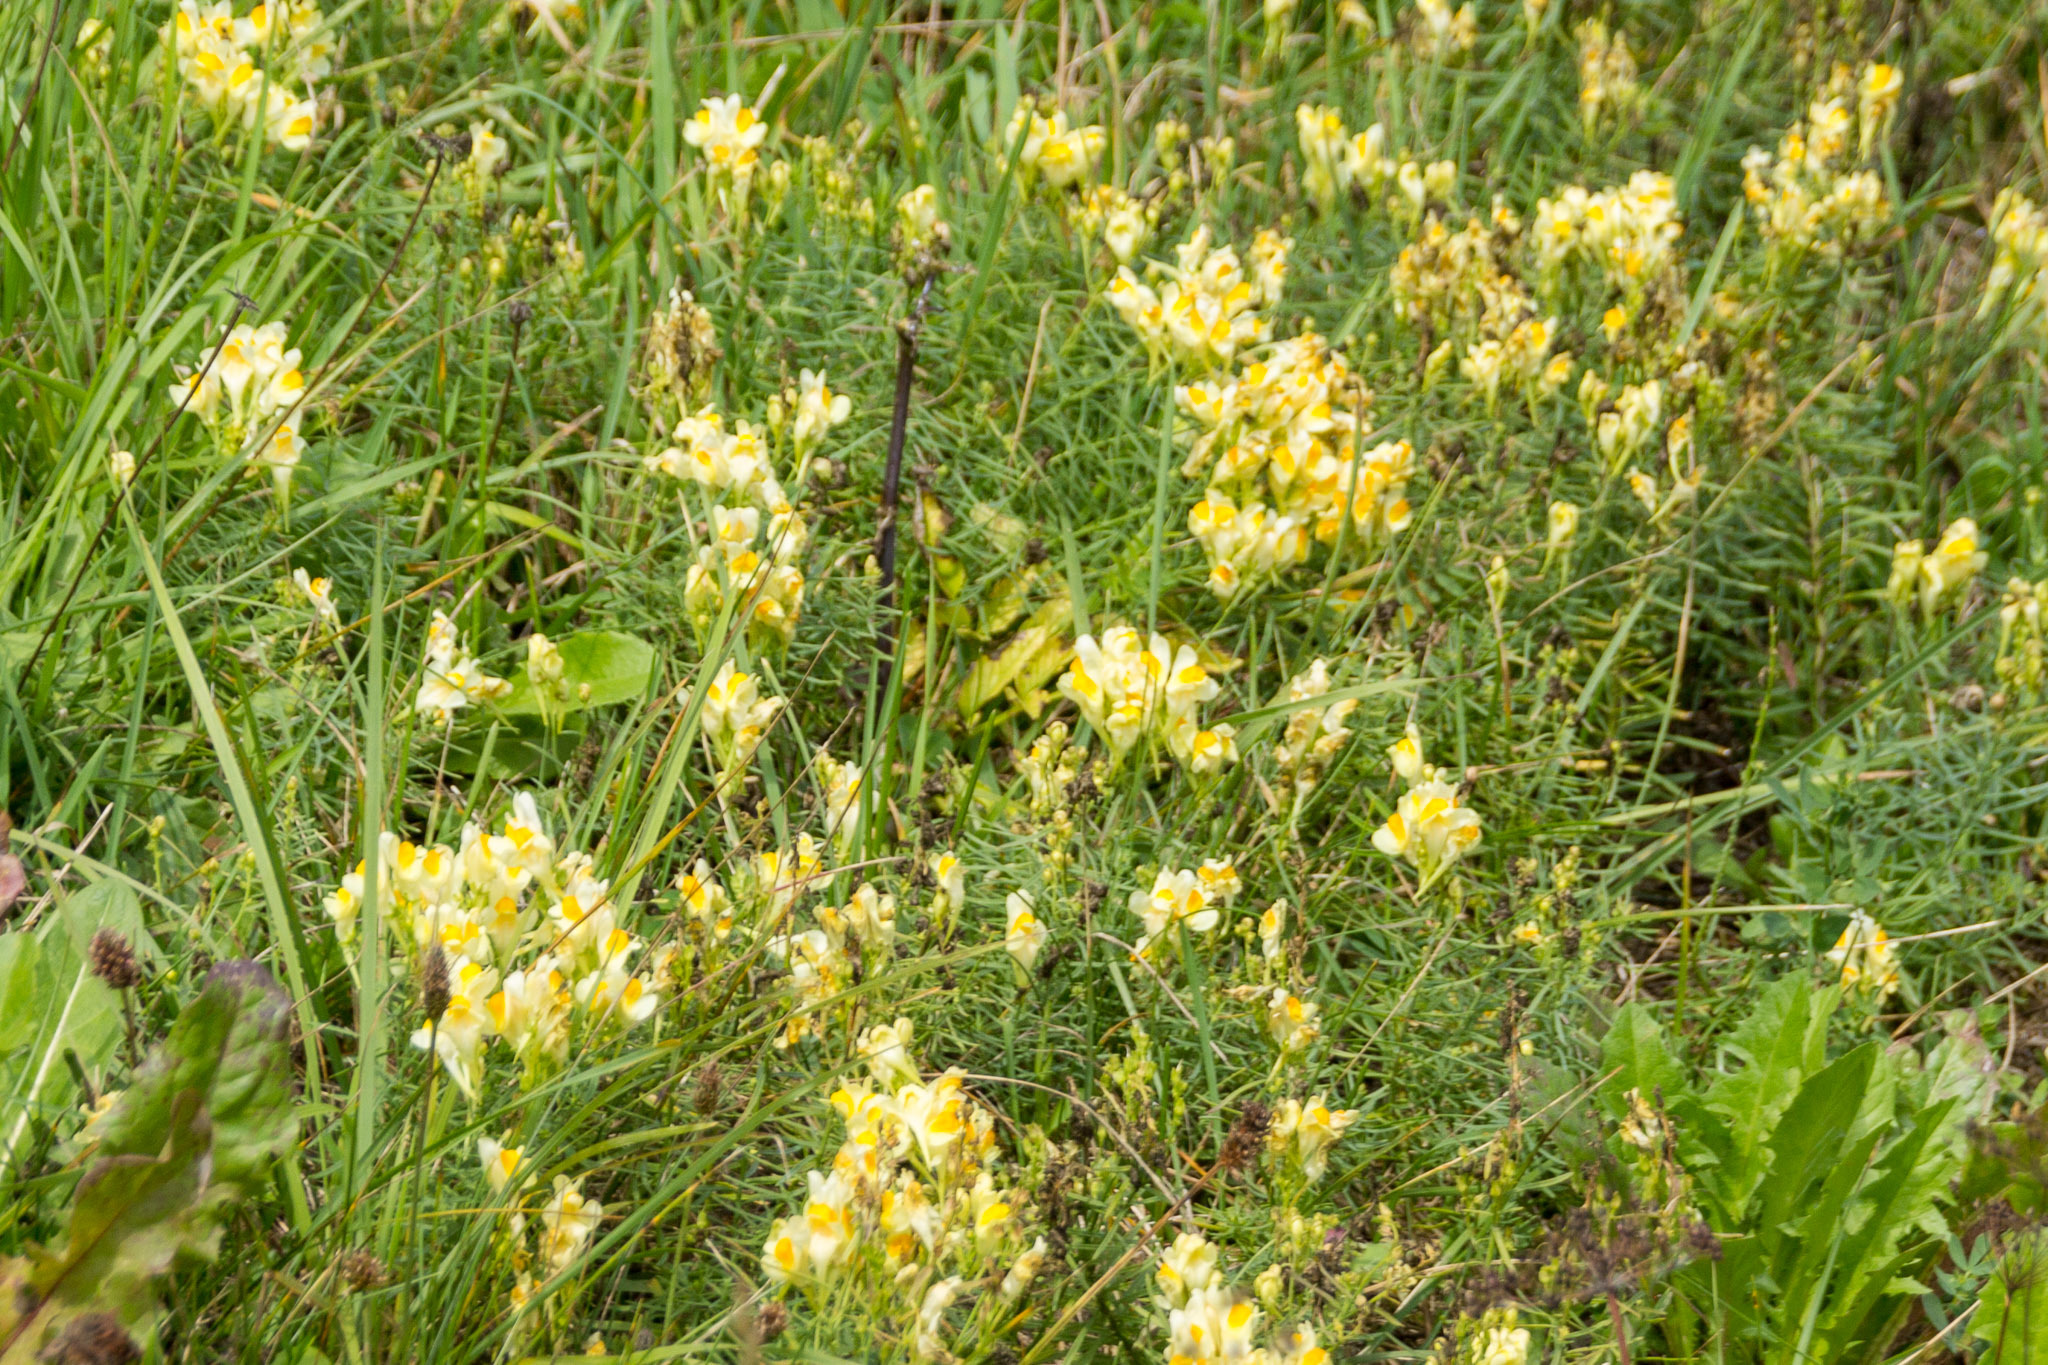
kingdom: Plantae
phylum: Tracheophyta
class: Magnoliopsida
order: Lamiales
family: Plantaginaceae
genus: Linaria
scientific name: Linaria vulgaris
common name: Butter and eggs
